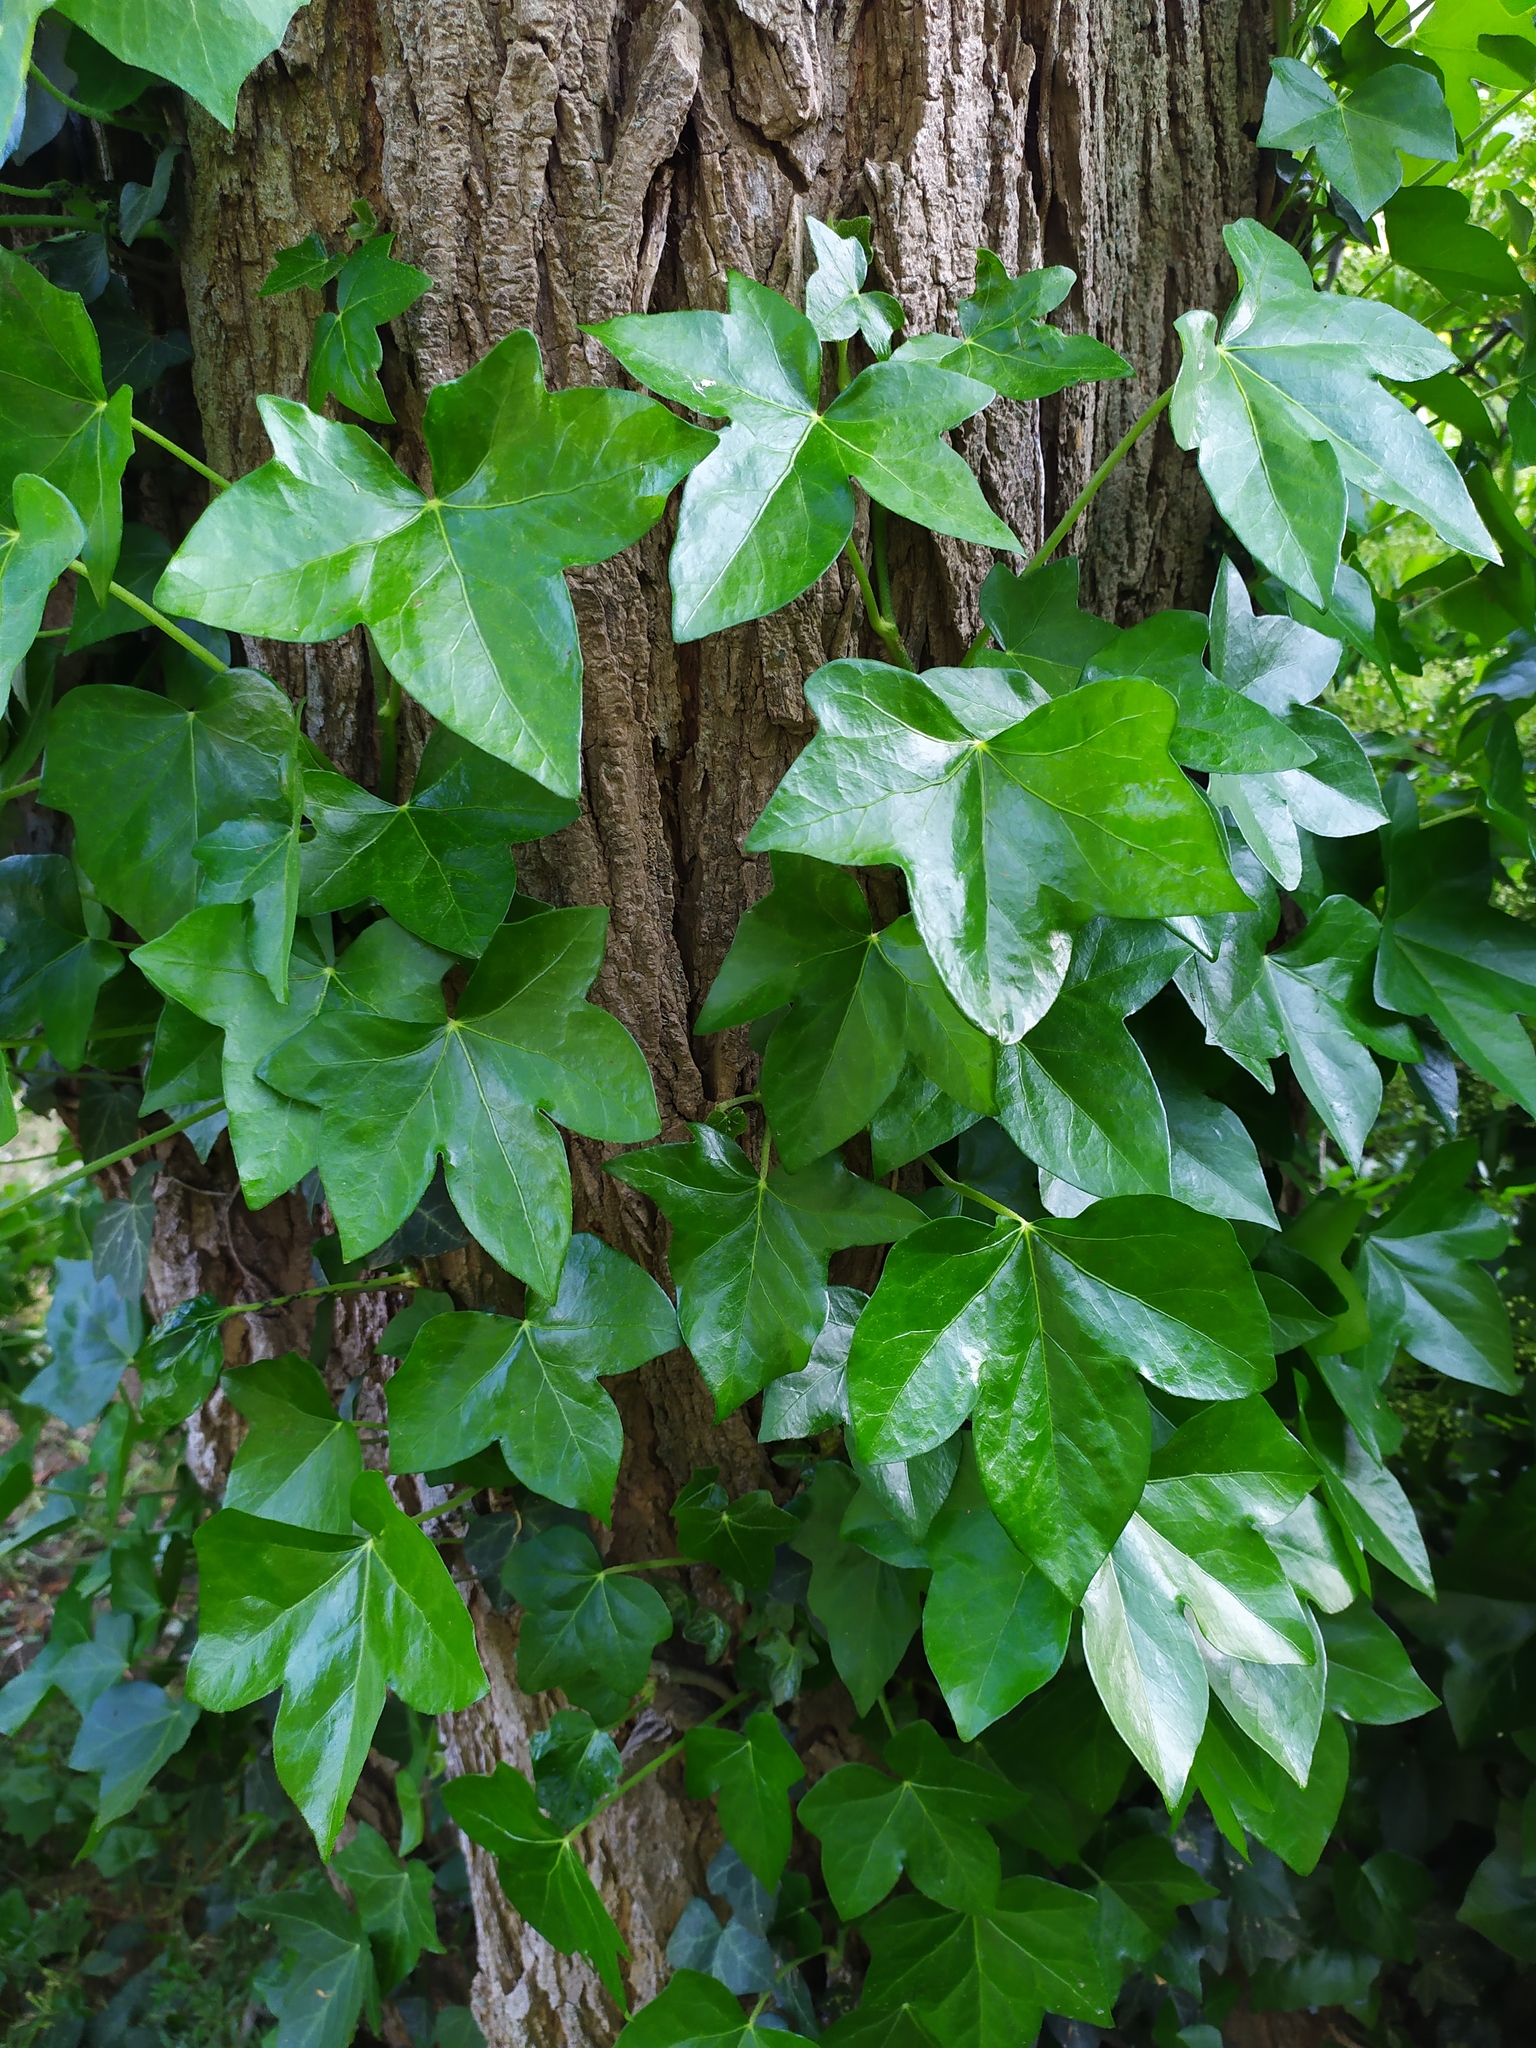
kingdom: Plantae
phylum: Tracheophyta
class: Magnoliopsida
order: Apiales
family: Araliaceae
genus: Hedera
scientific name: Hedera helix
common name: Ivy
